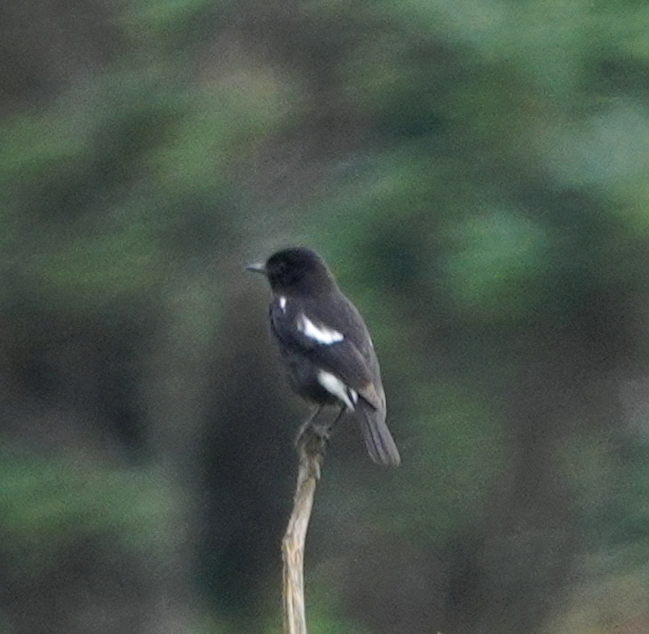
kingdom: Animalia
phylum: Chordata
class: Aves
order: Passeriformes
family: Muscicapidae
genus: Saxicola
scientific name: Saxicola caprata
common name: Pied bush chat
